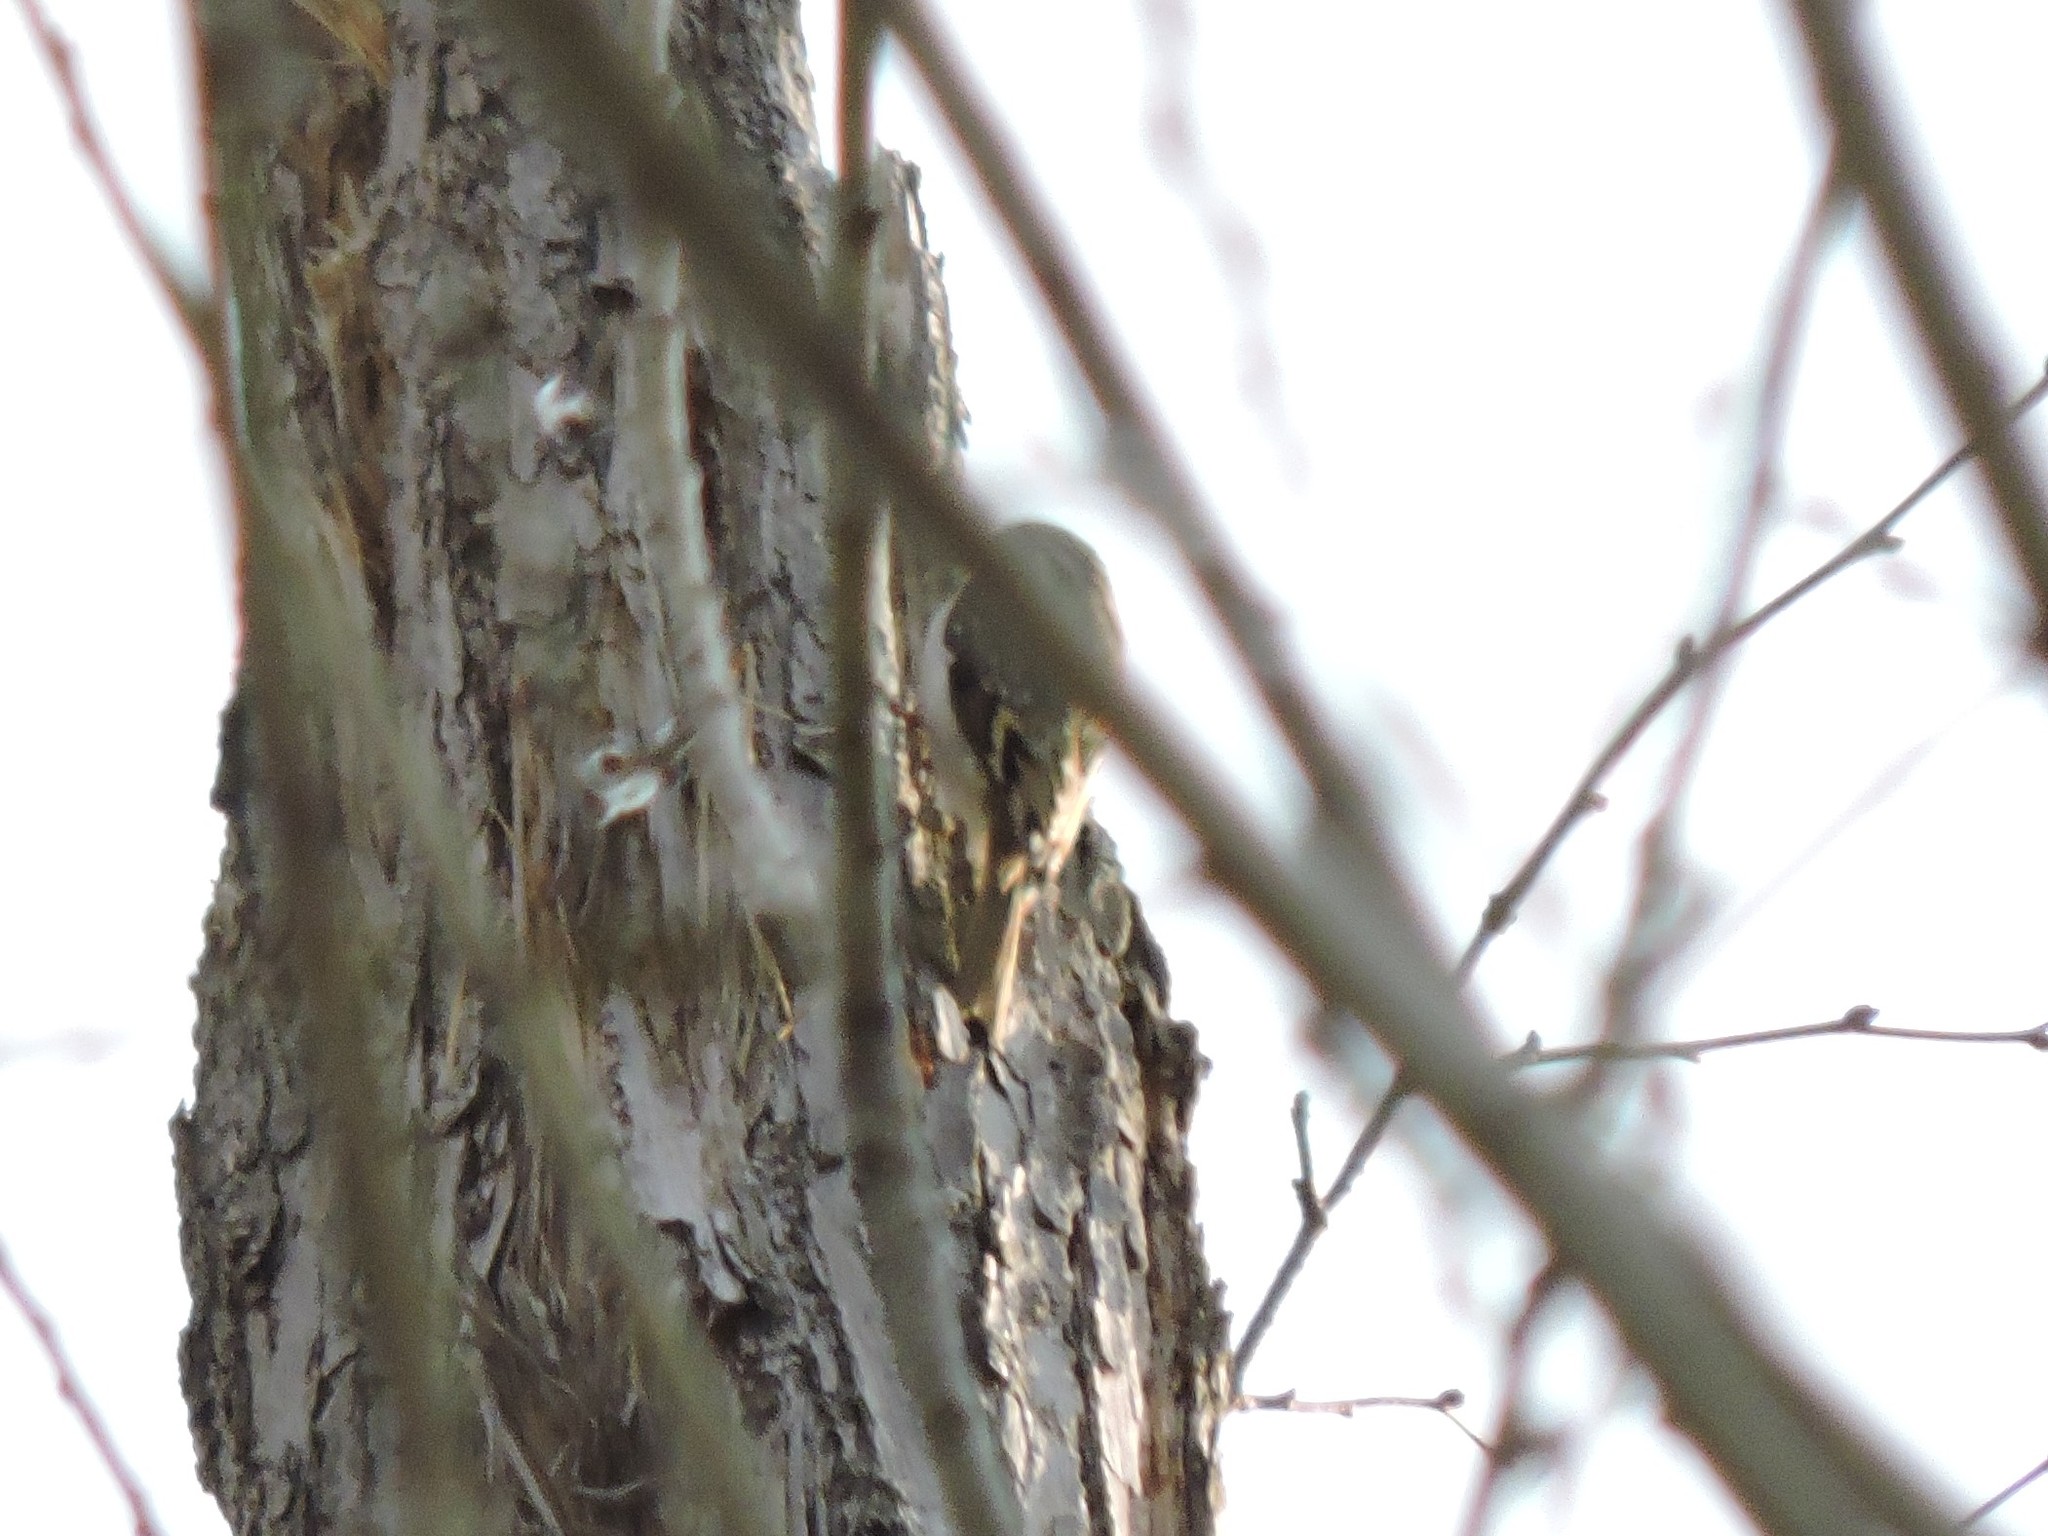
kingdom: Animalia
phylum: Chordata
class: Aves
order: Passeriformes
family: Certhiidae
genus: Certhia
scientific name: Certhia familiaris
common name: Eurasian treecreeper
